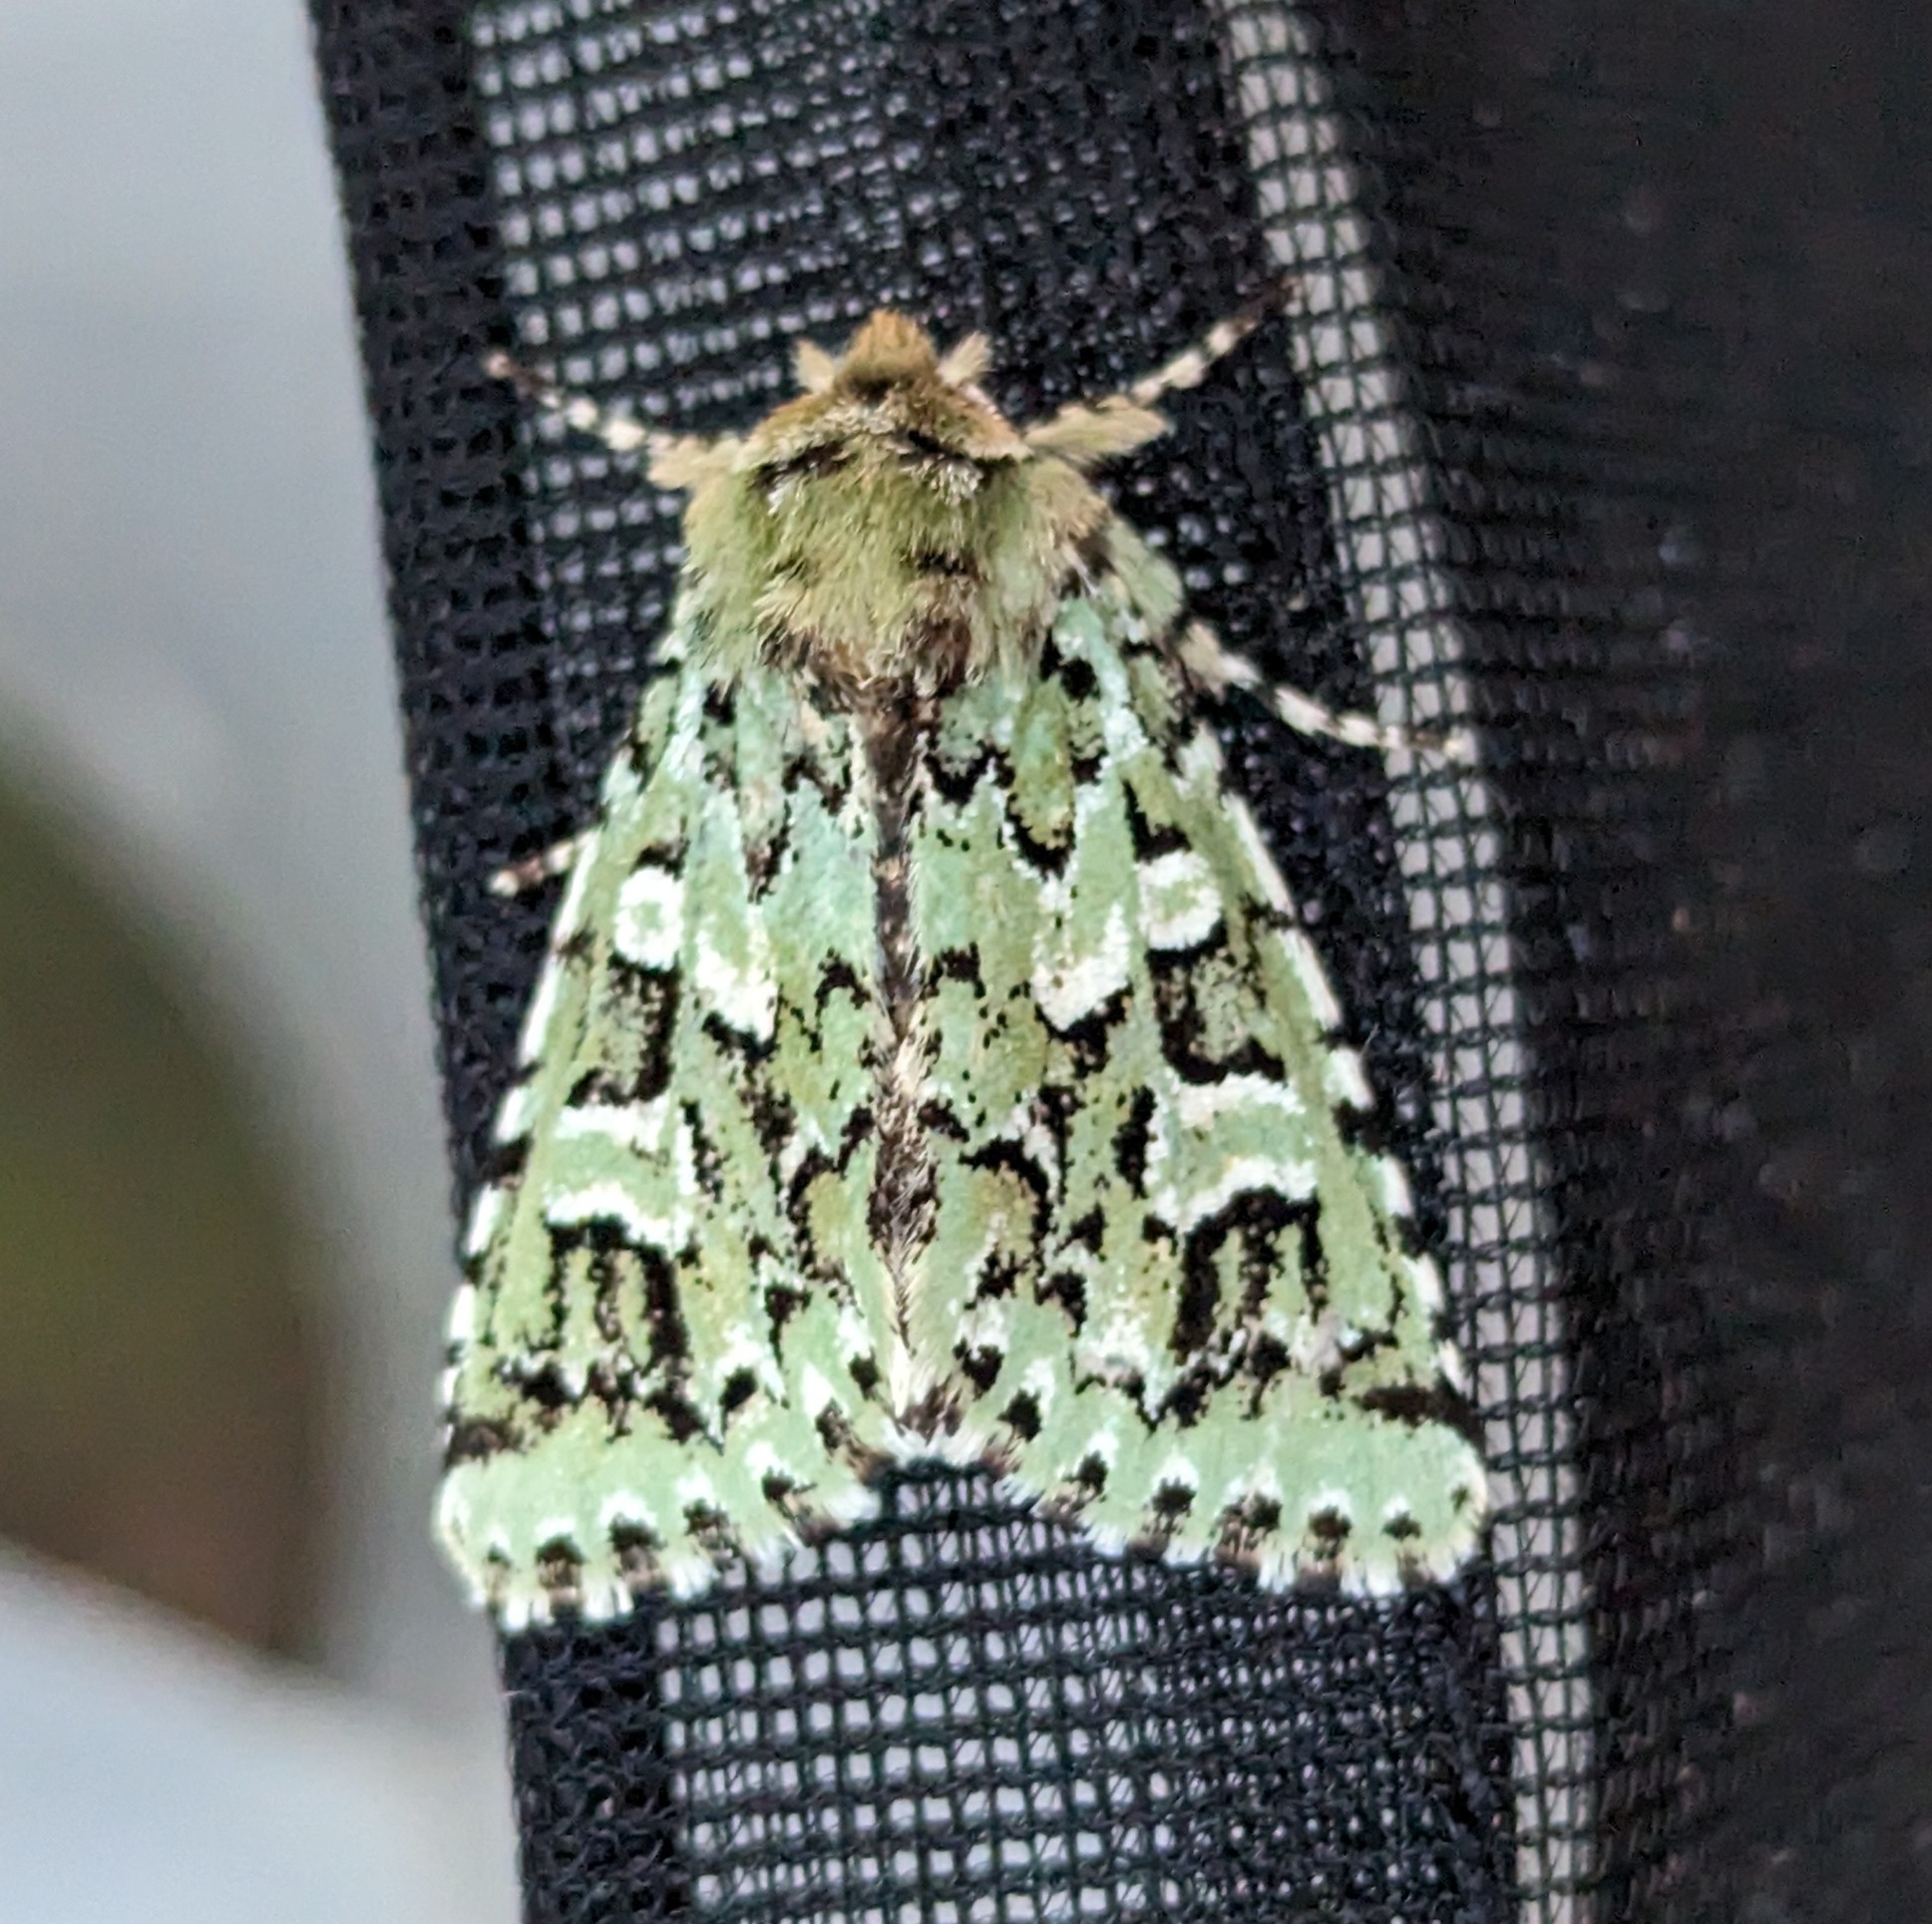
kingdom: Animalia
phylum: Arthropoda
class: Insecta
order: Lepidoptera
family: Noctuidae
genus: Feralia
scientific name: Feralia comstocki
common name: Comstock's sallow
